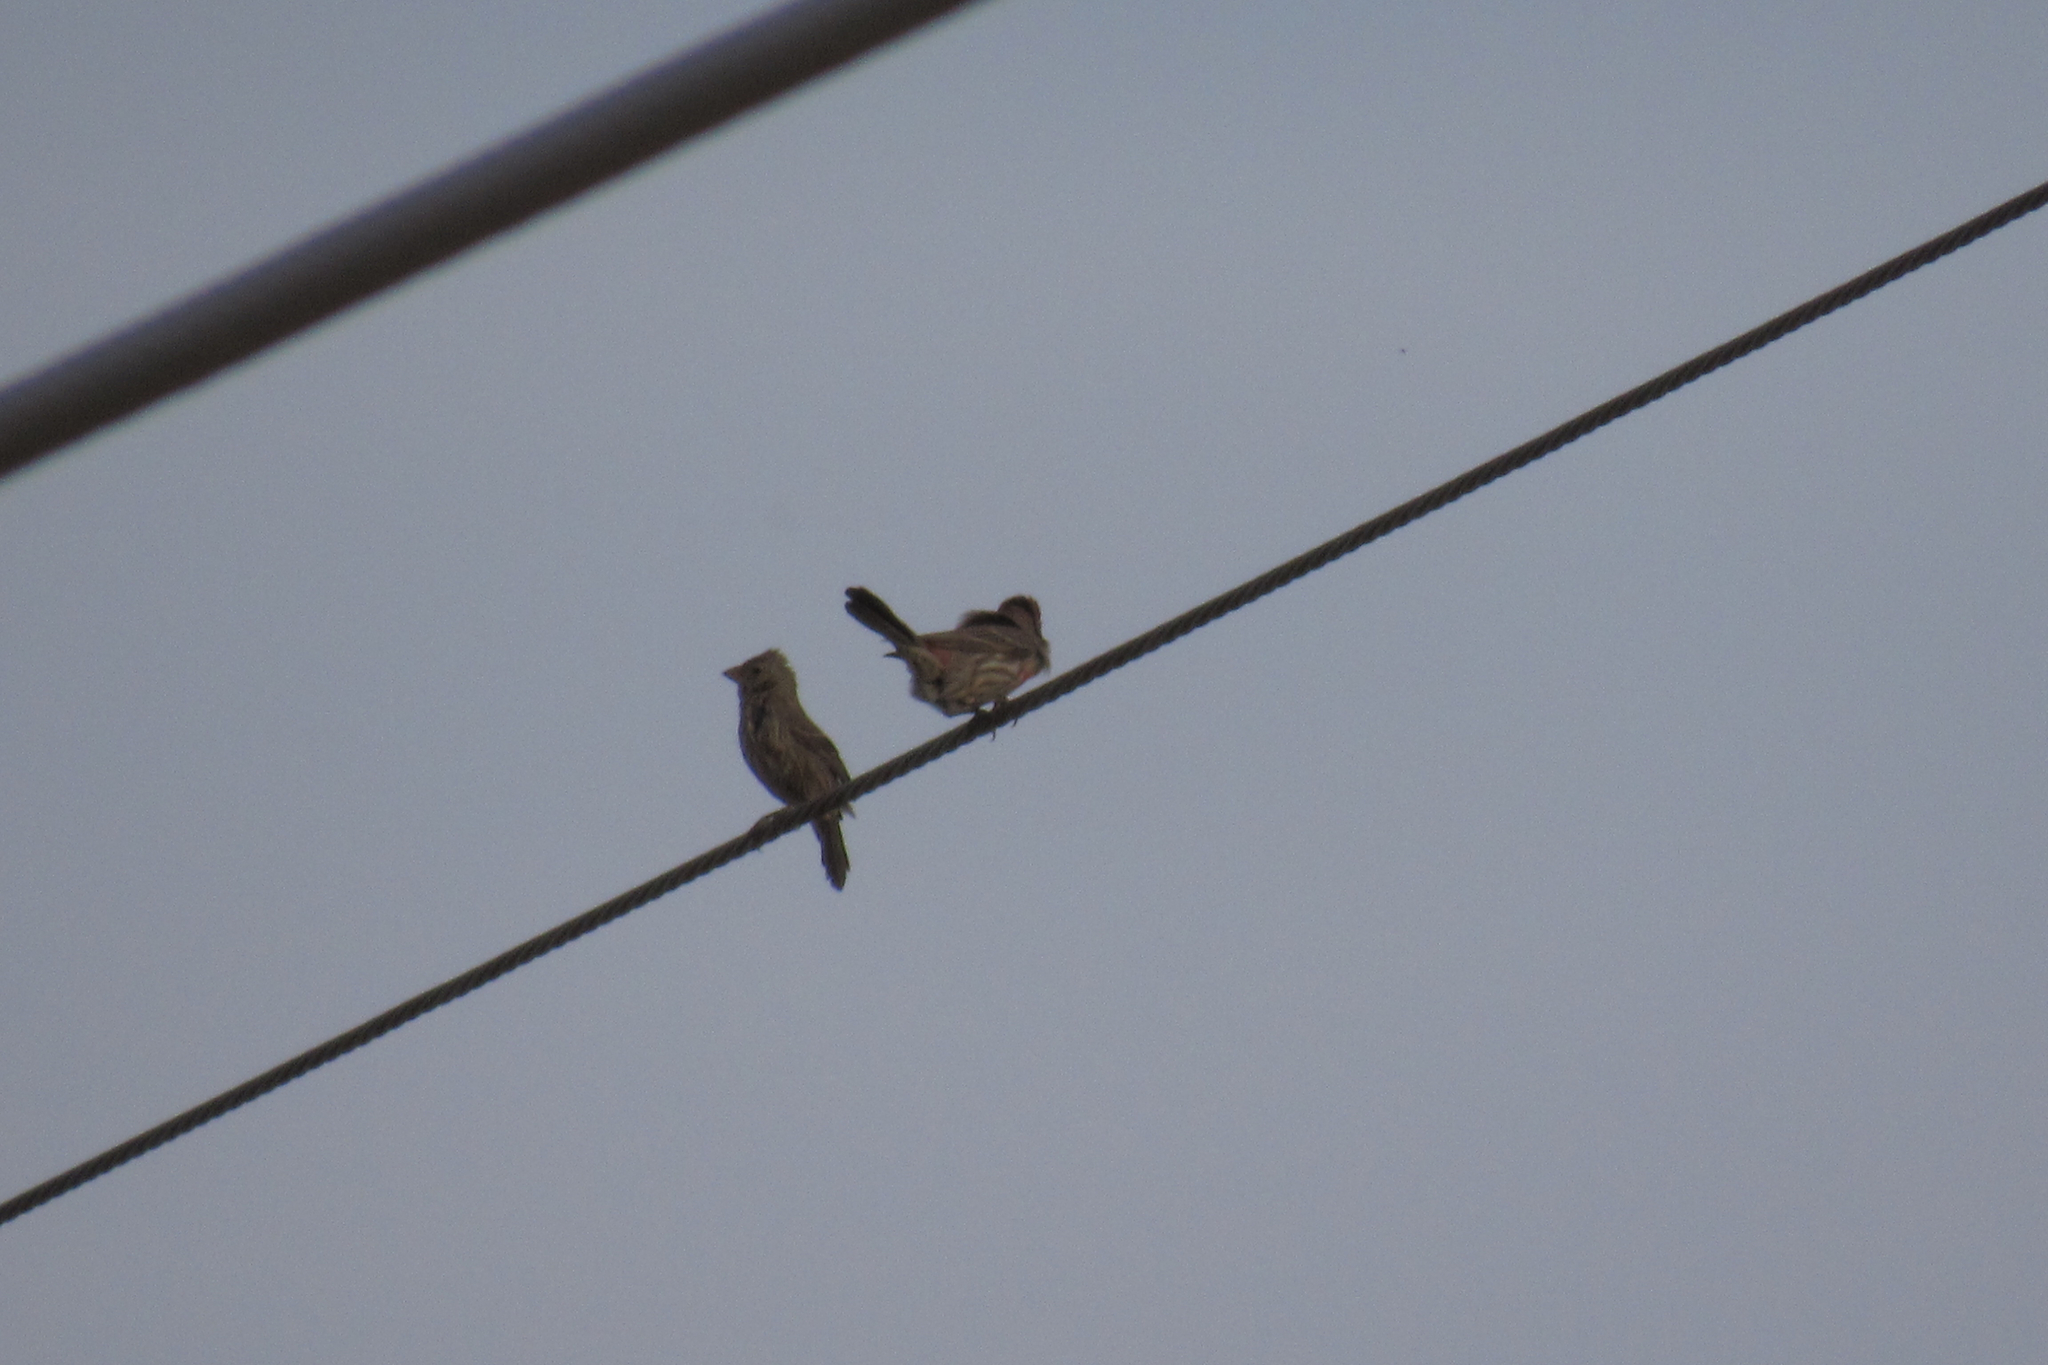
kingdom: Animalia
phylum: Chordata
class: Aves
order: Passeriformes
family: Fringillidae
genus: Haemorhous
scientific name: Haemorhous mexicanus
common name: House finch
